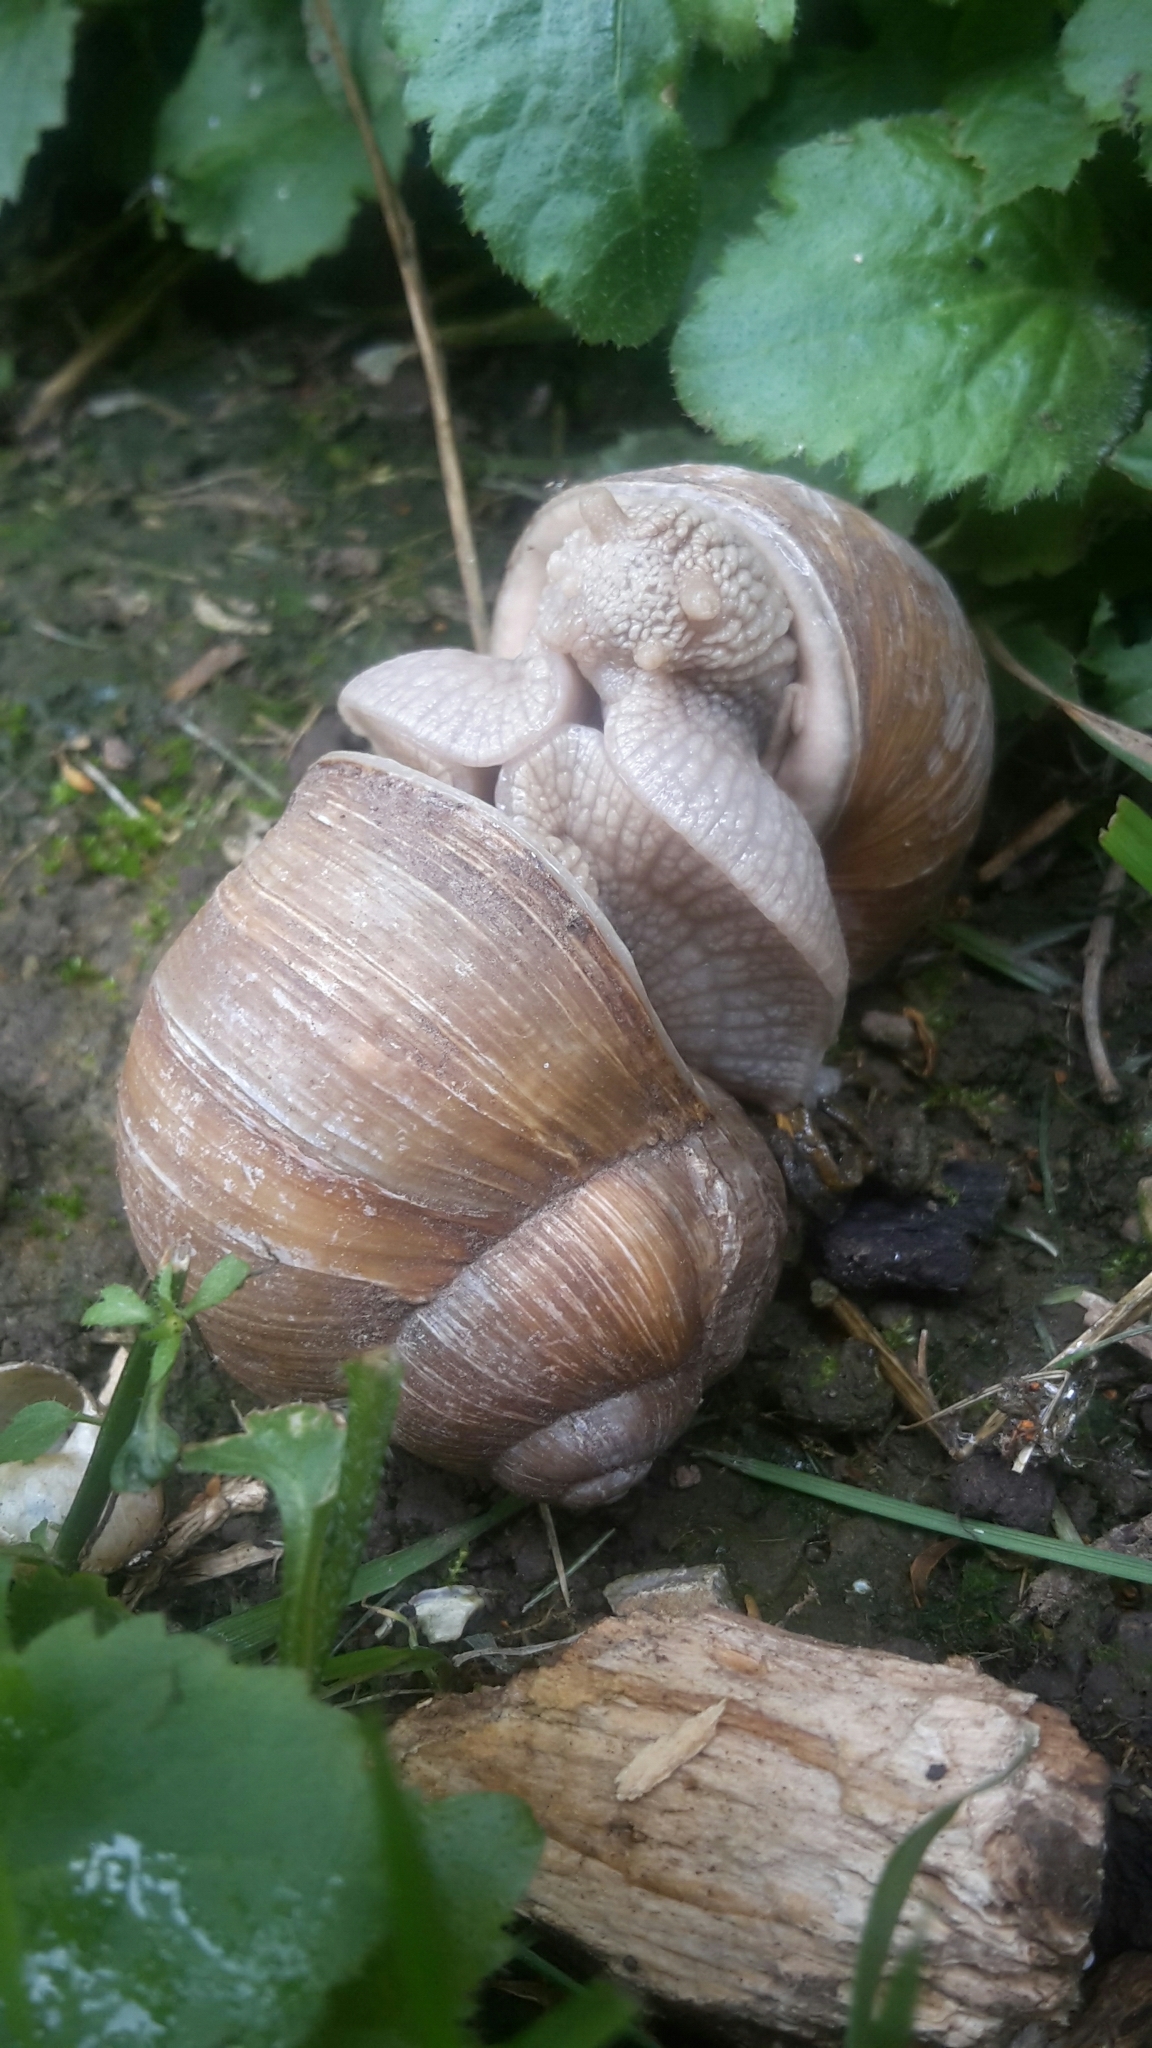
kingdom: Animalia
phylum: Mollusca
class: Gastropoda
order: Stylommatophora
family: Helicidae
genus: Helix
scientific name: Helix pomatia
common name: Roman snail
